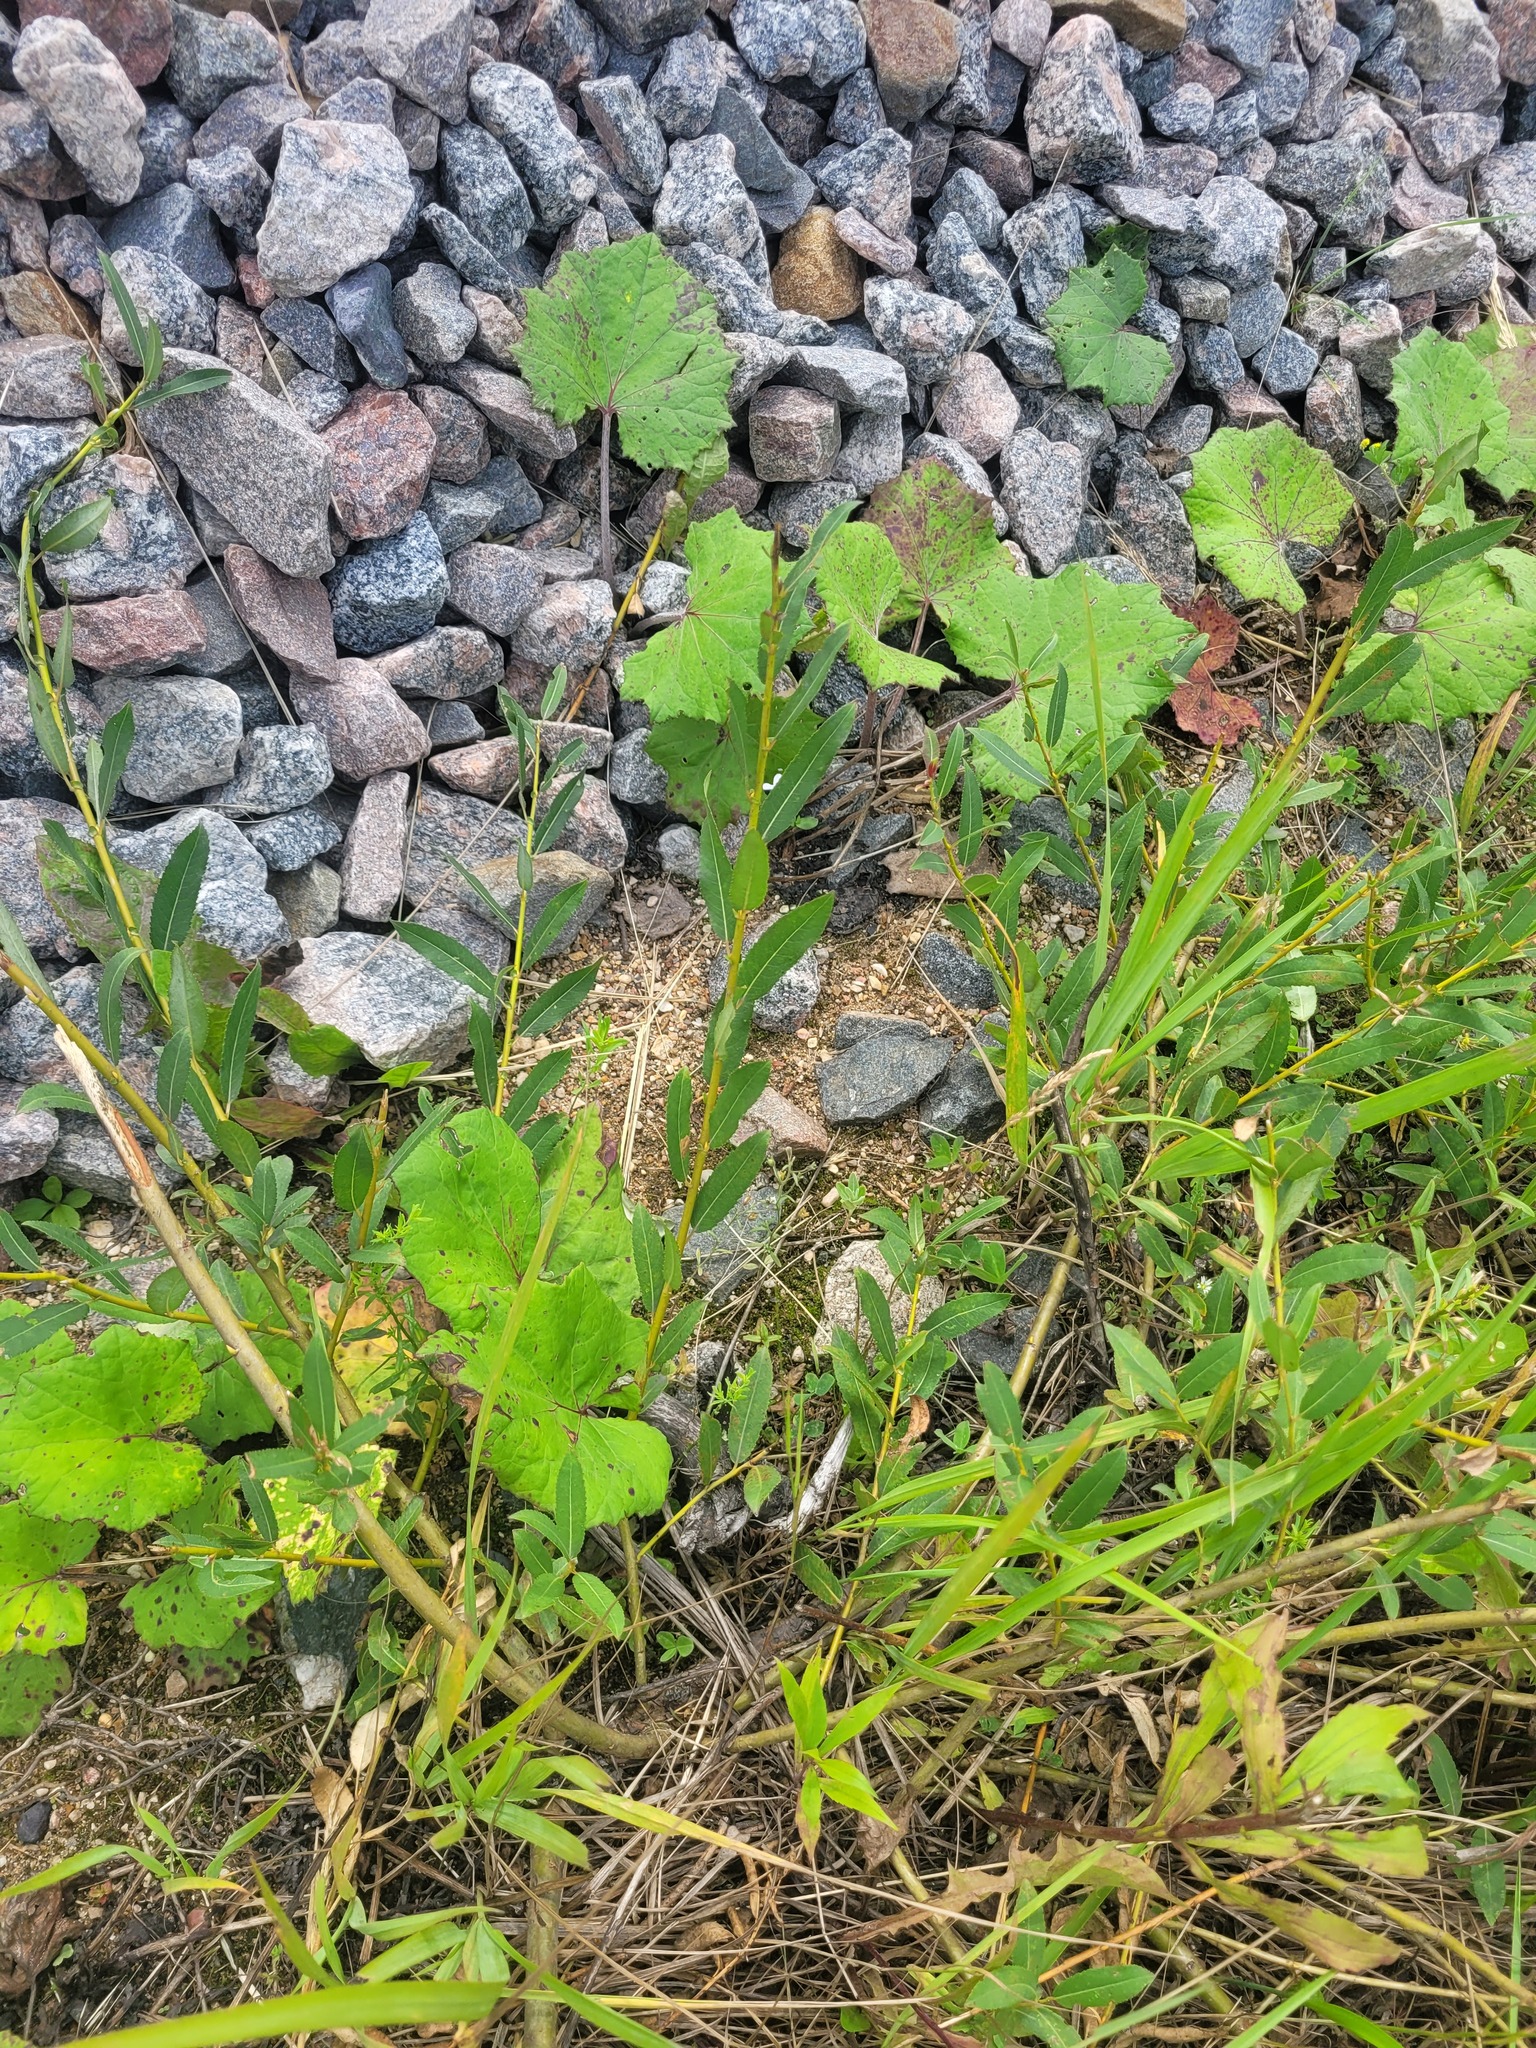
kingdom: Plantae
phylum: Tracheophyta
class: Magnoliopsida
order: Malpighiales
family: Salicaceae
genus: Salix
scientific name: Salix triandra
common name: Almond willow
